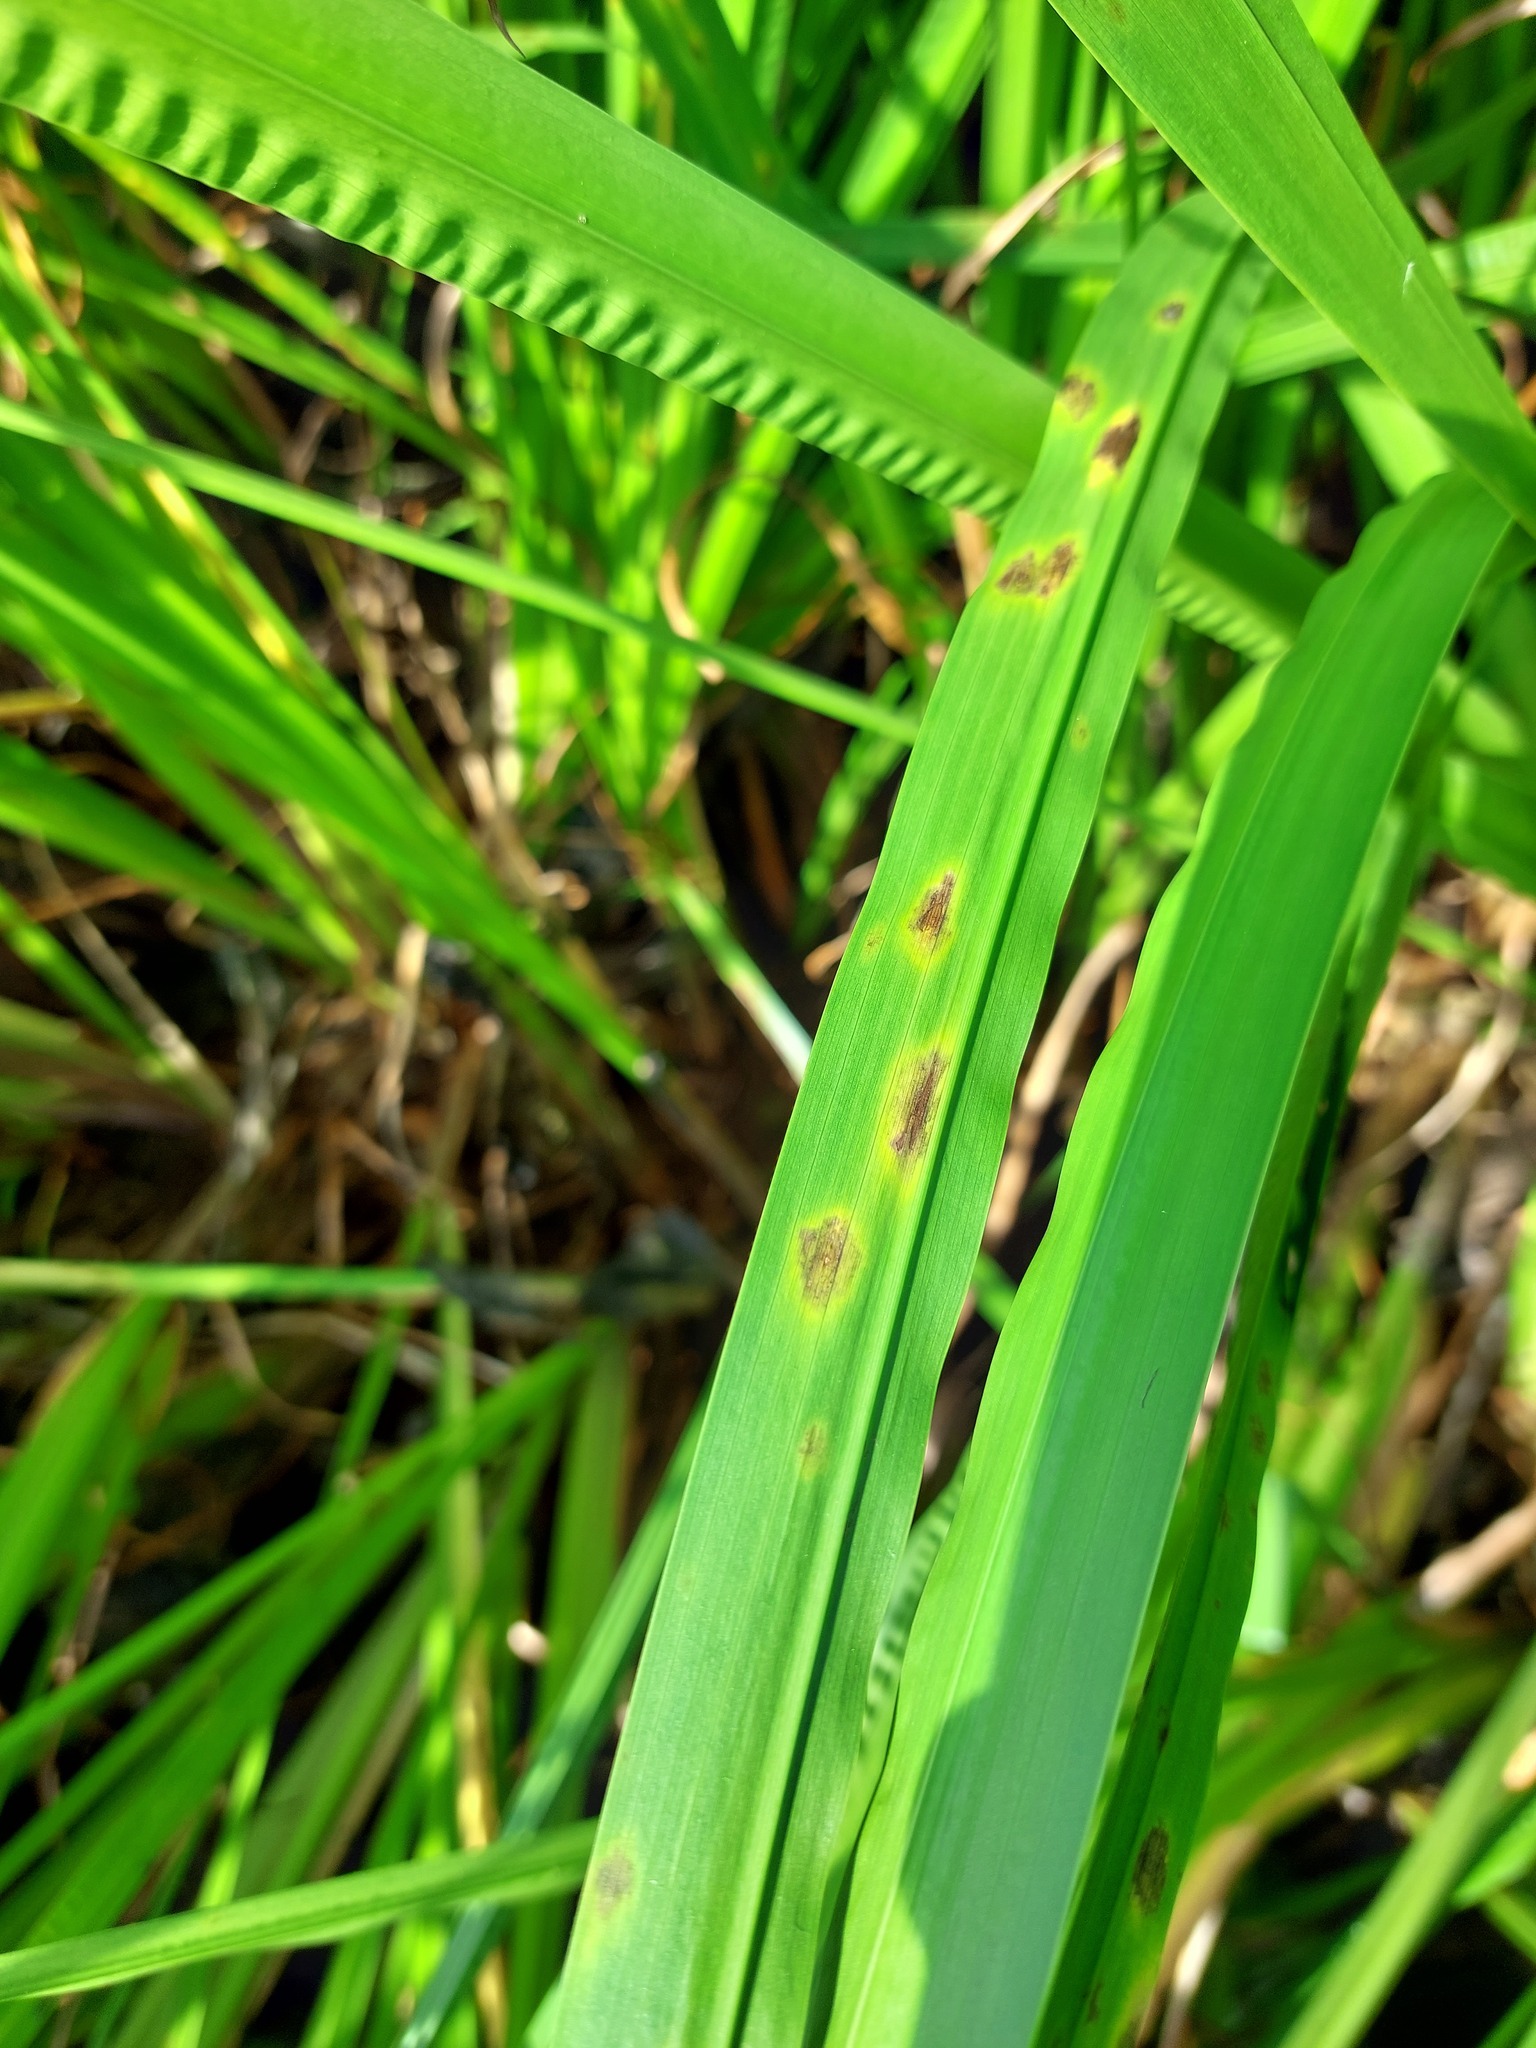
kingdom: Fungi
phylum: Ascomycota
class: Dothideomycetes
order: Mycosphaerellales
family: Mycosphaerellaceae
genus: Ramularia
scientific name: Ramularia aromatica
